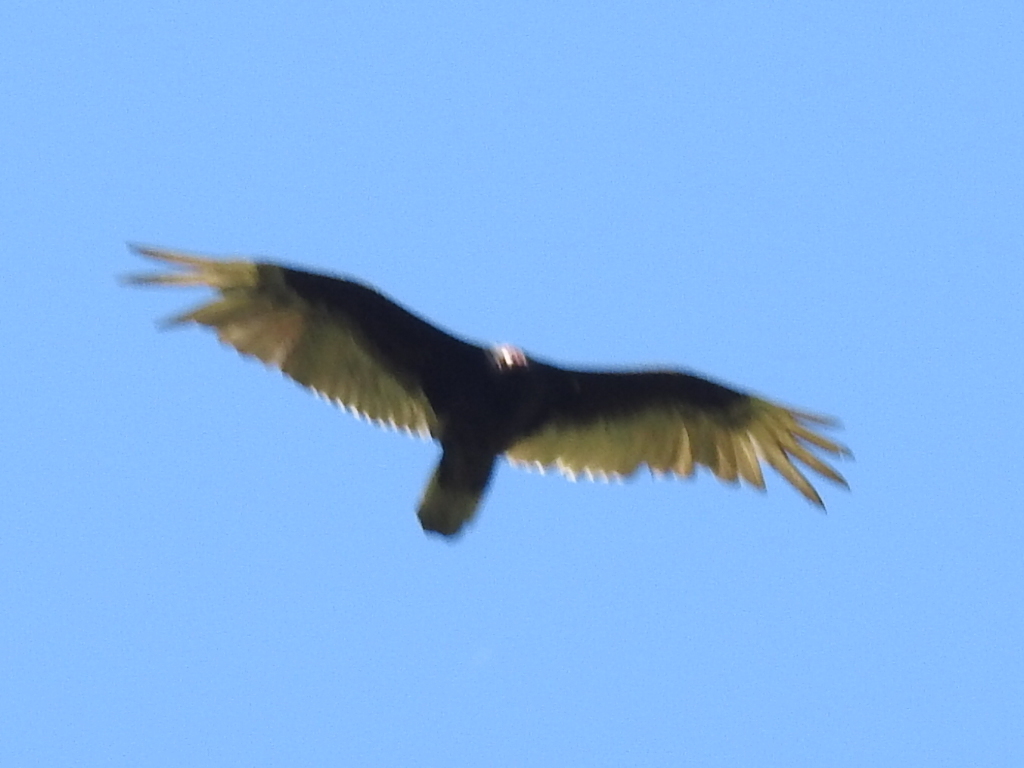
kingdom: Animalia
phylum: Chordata
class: Aves
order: Accipitriformes
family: Cathartidae
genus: Cathartes
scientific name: Cathartes aura
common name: Turkey vulture
